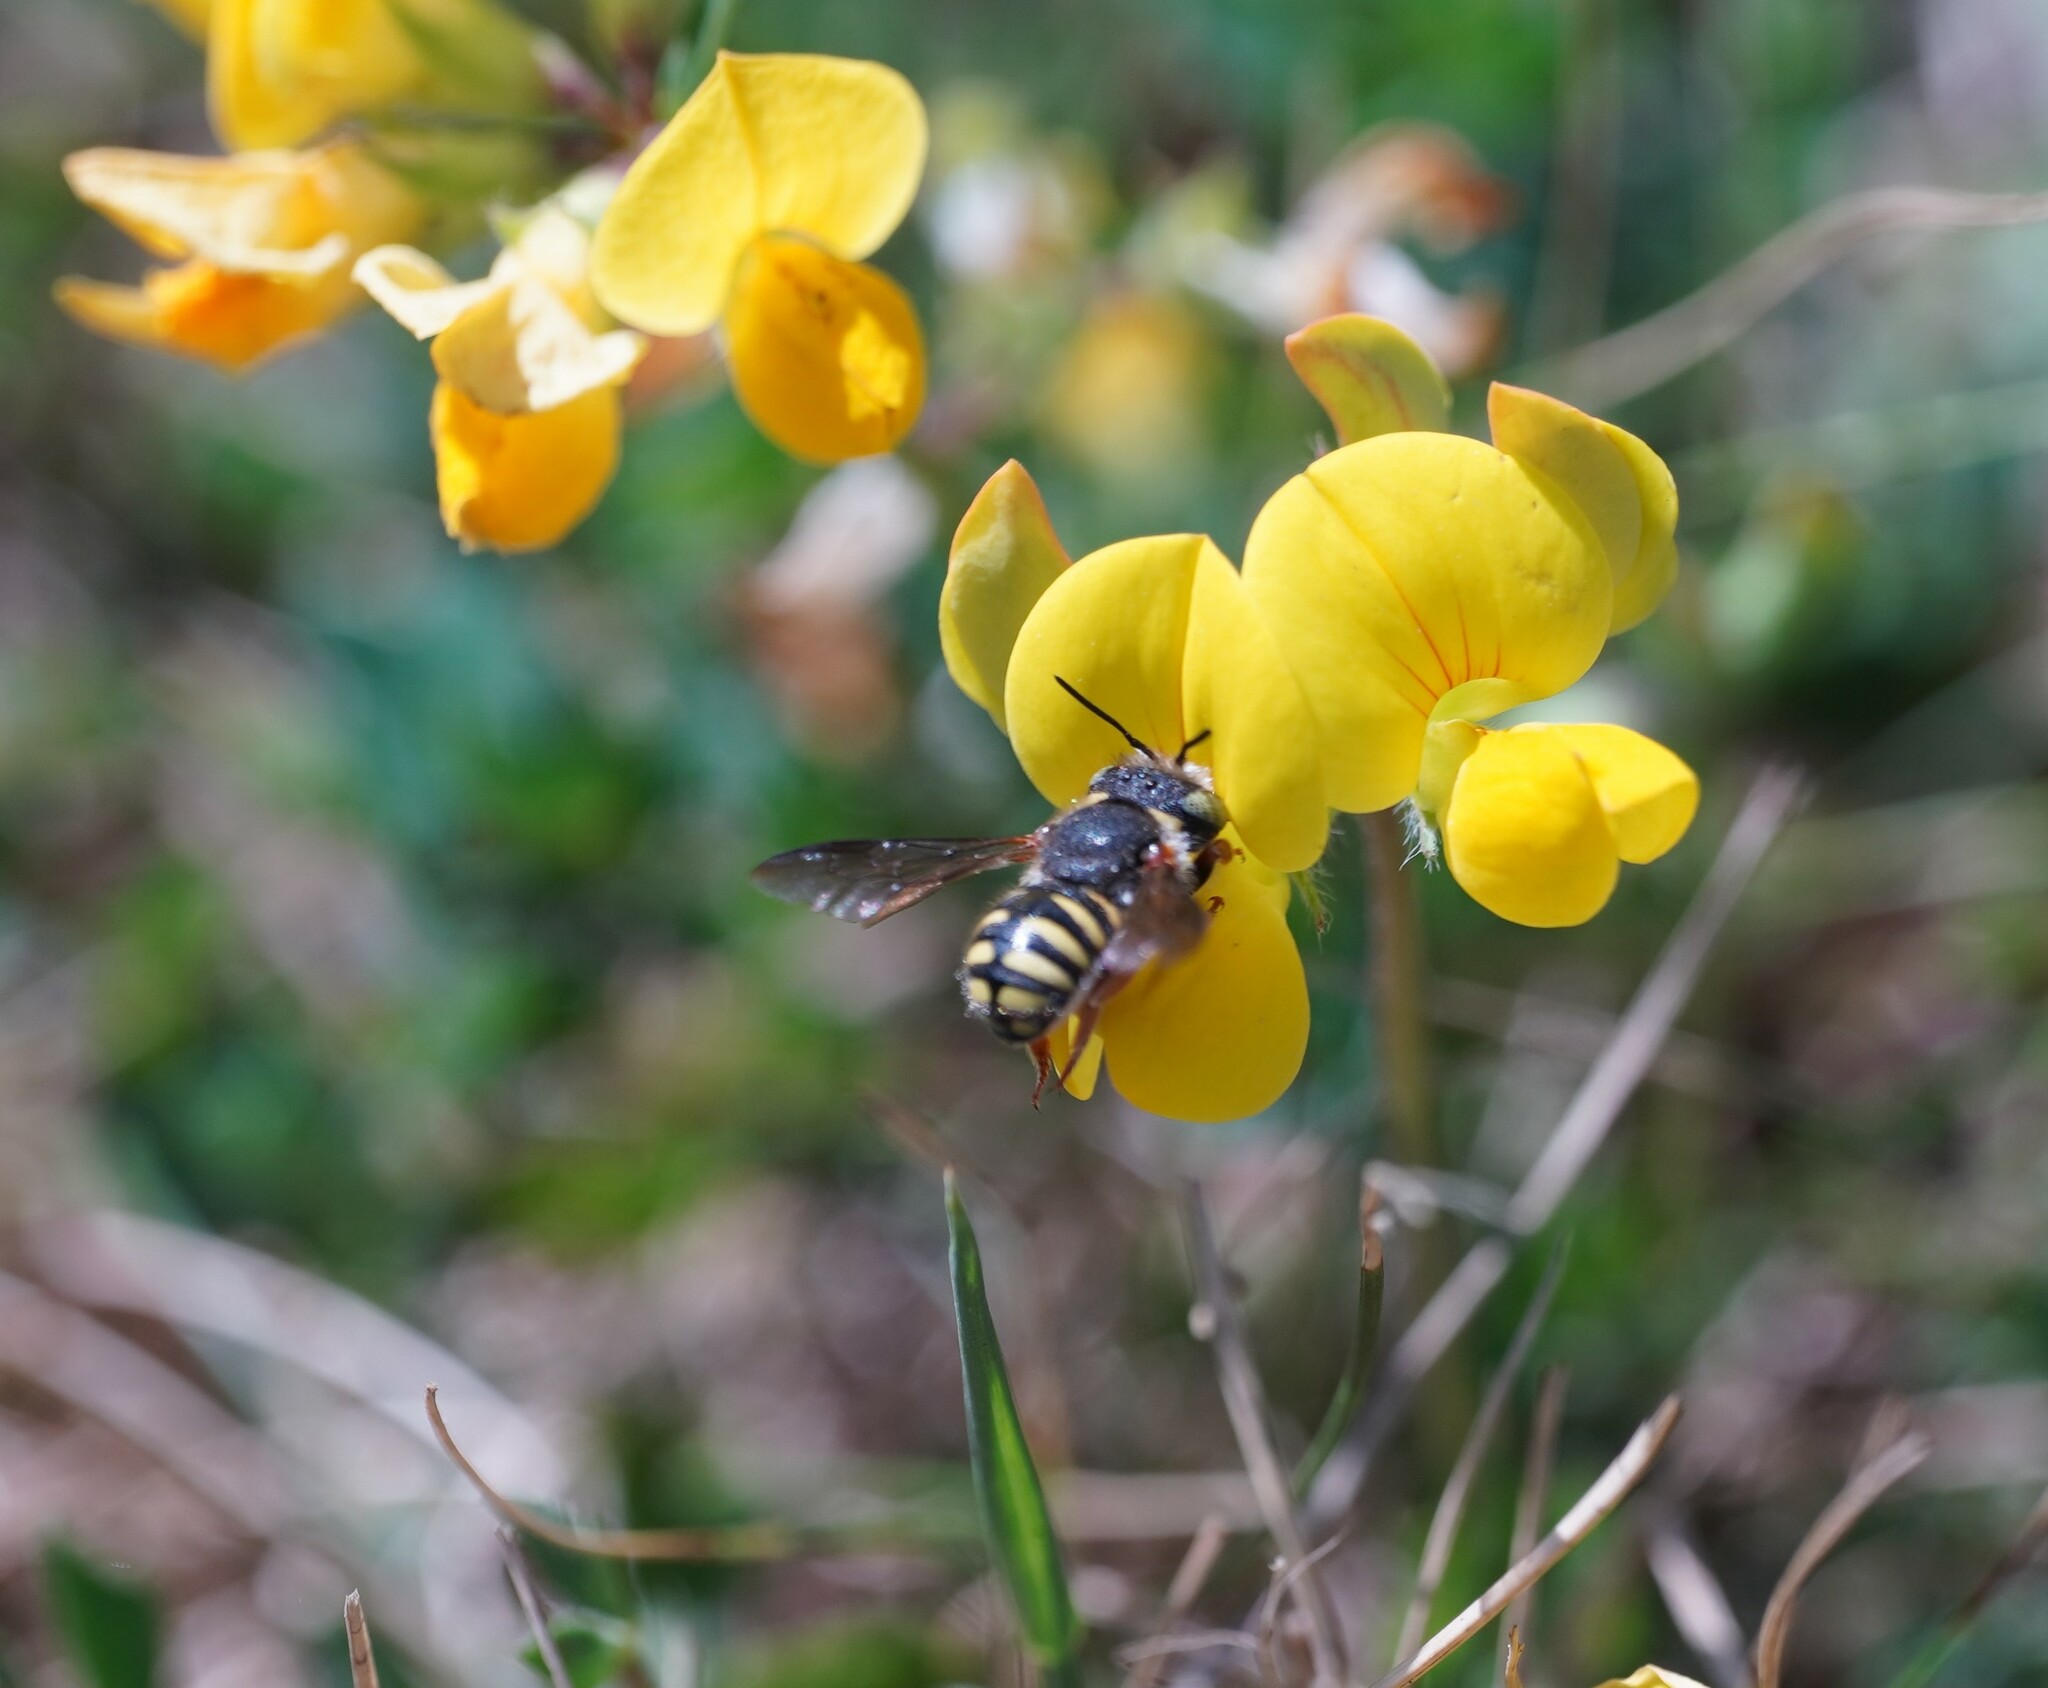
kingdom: Animalia
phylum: Arthropoda
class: Insecta
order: Hymenoptera
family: Megachilidae
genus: Anthidium
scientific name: Anthidium oblongatum
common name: Oblong wool carder bee
